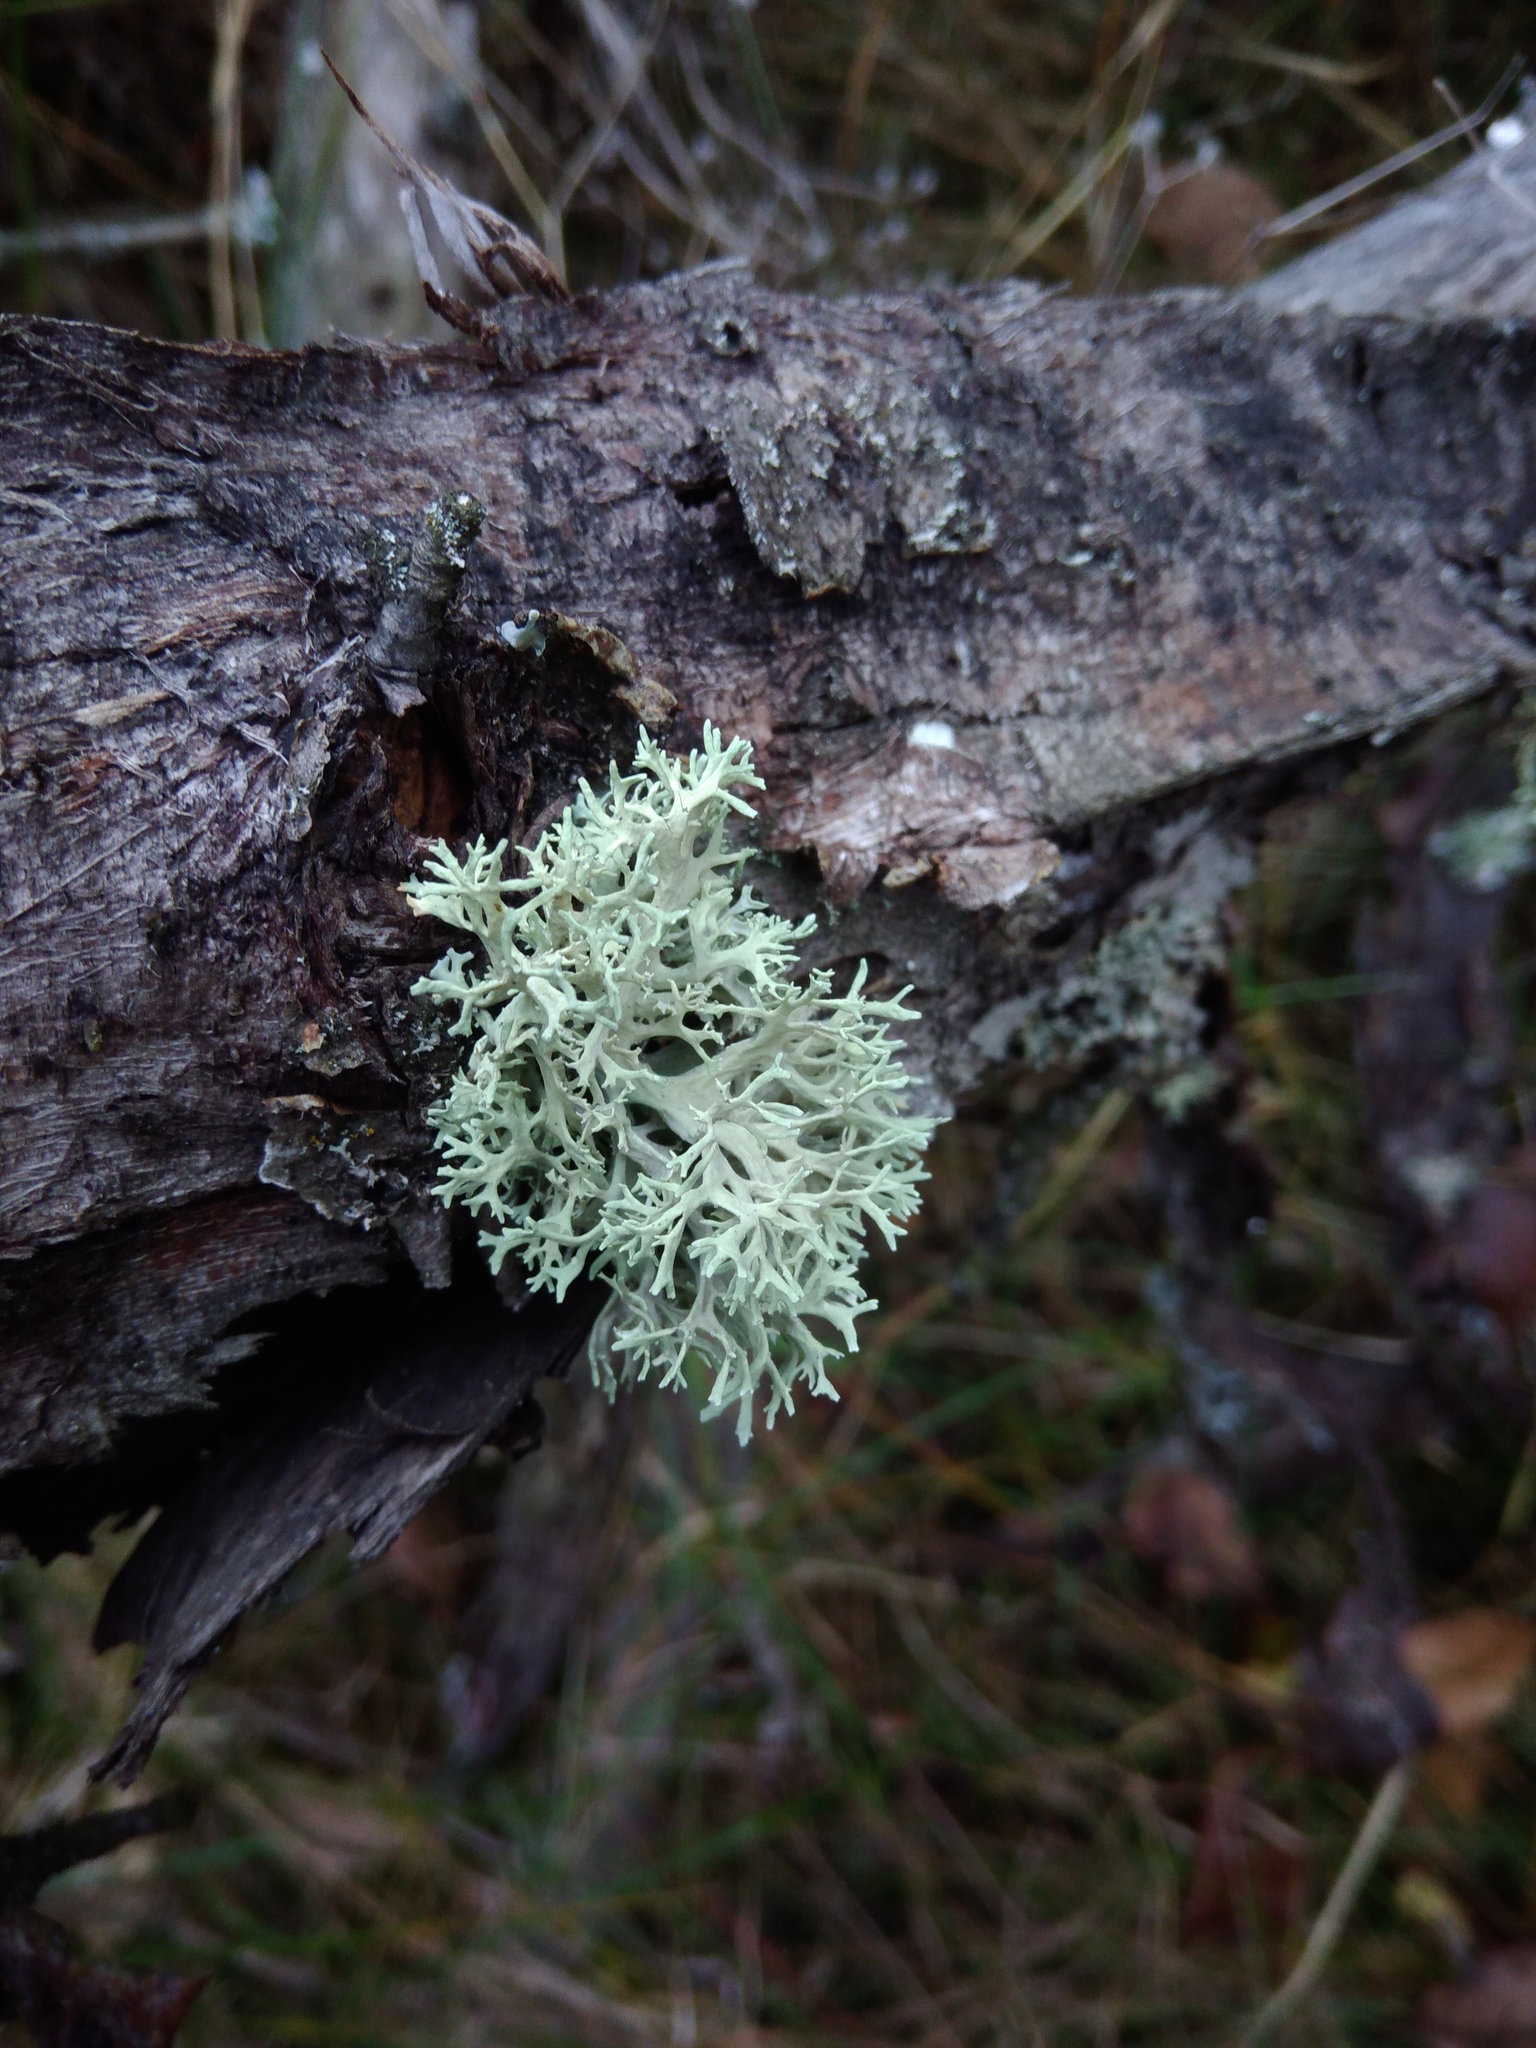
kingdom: Fungi
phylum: Ascomycota
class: Lecanoromycetes
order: Lecanorales
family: Parmeliaceae
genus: Evernia
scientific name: Evernia prunastri
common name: Oak moss
